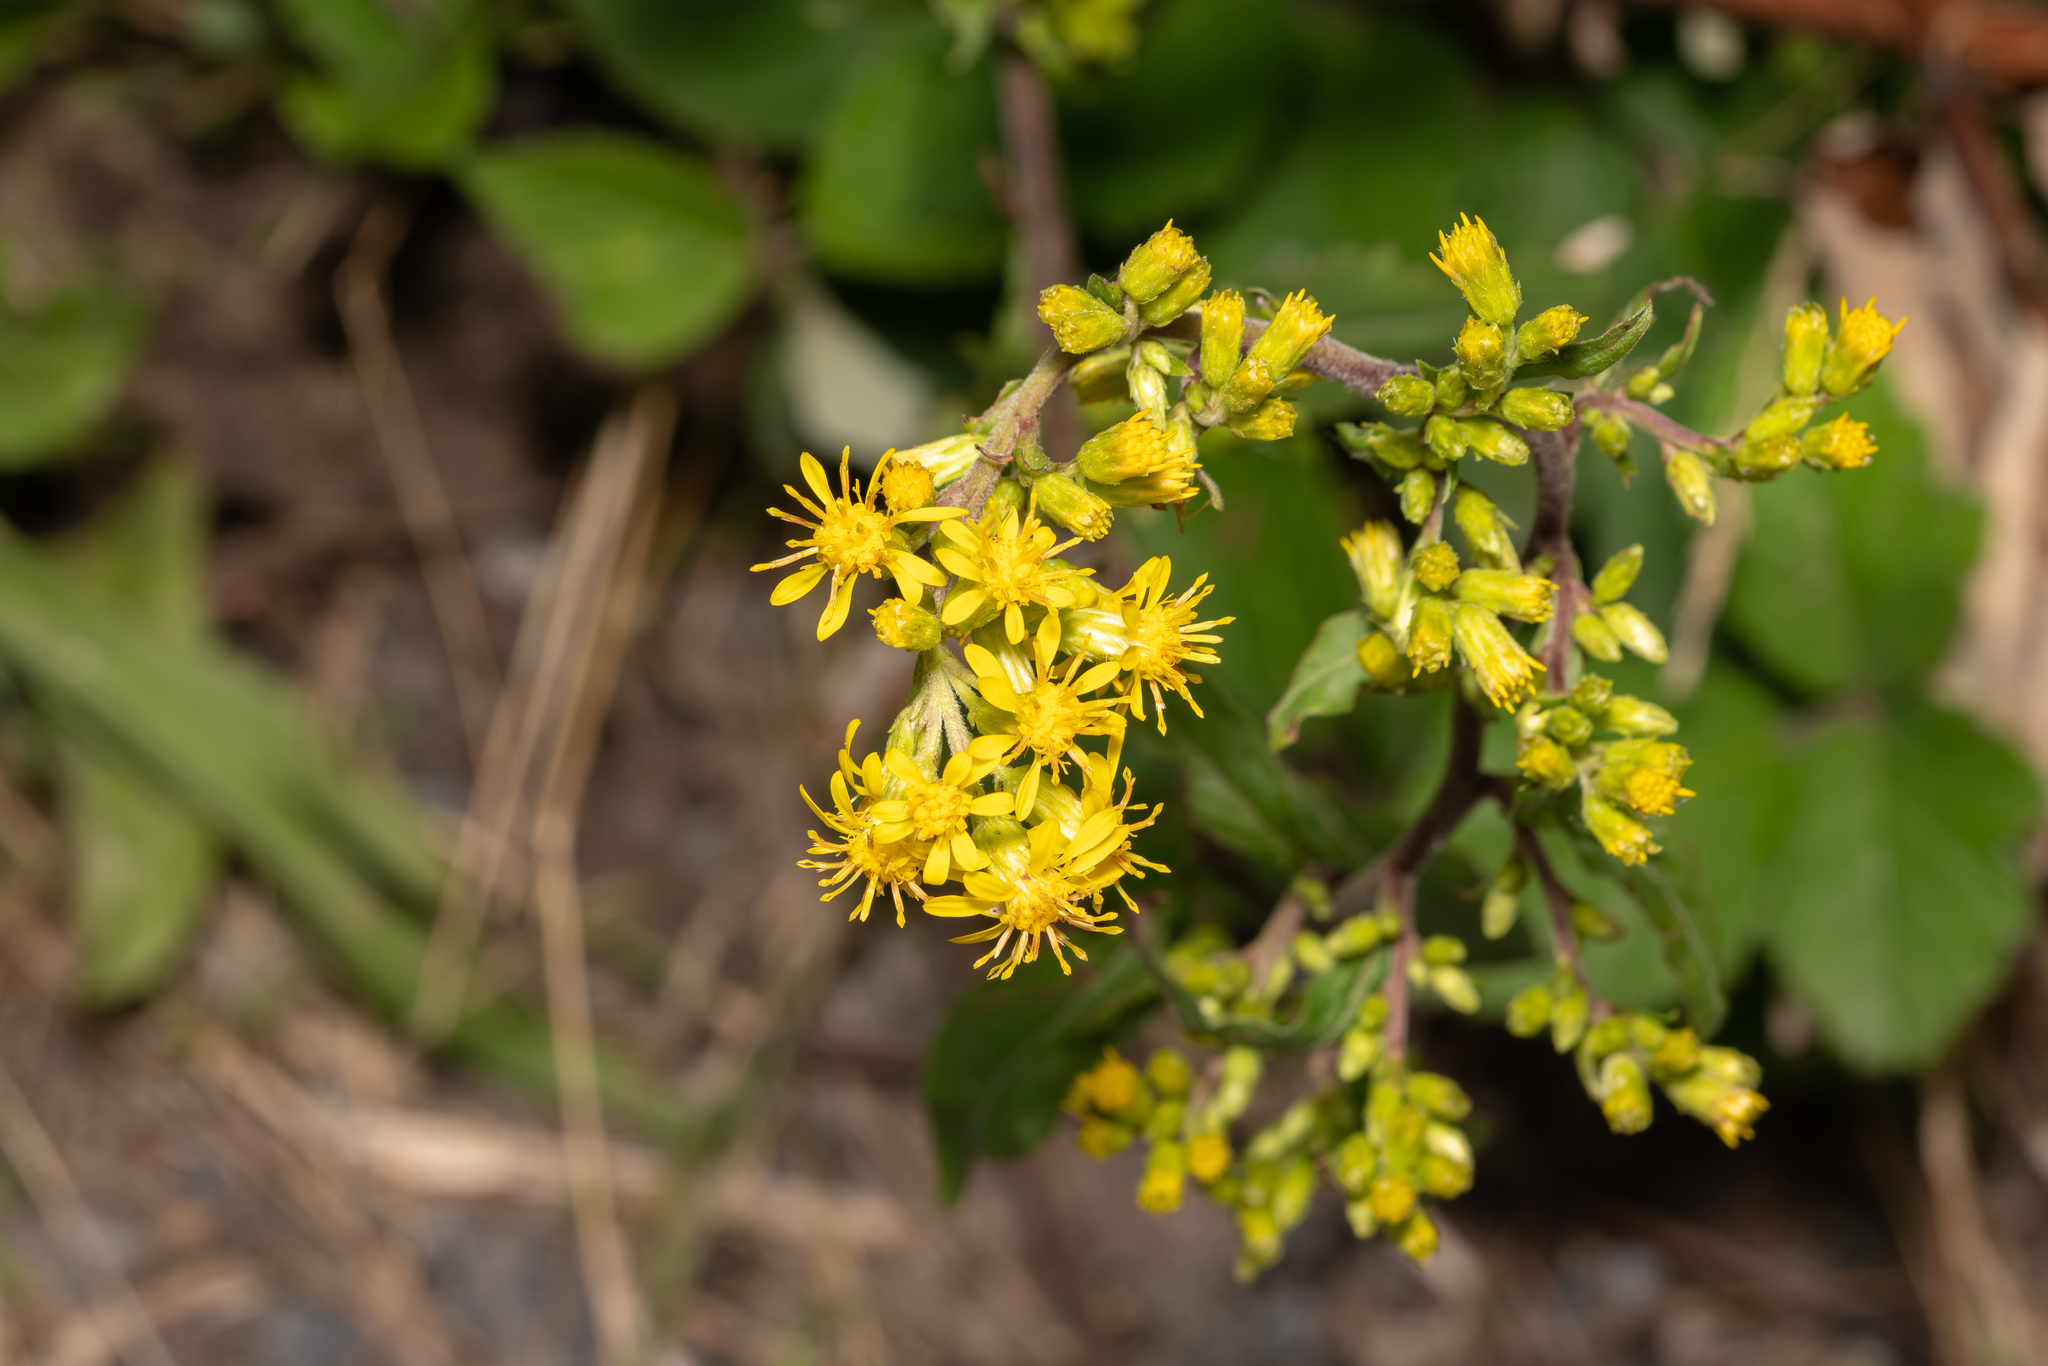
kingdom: Plantae
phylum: Tracheophyta
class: Magnoliopsida
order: Asterales
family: Asteraceae
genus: Solidago
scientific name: Solidago virgaurea
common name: Goldenrod
